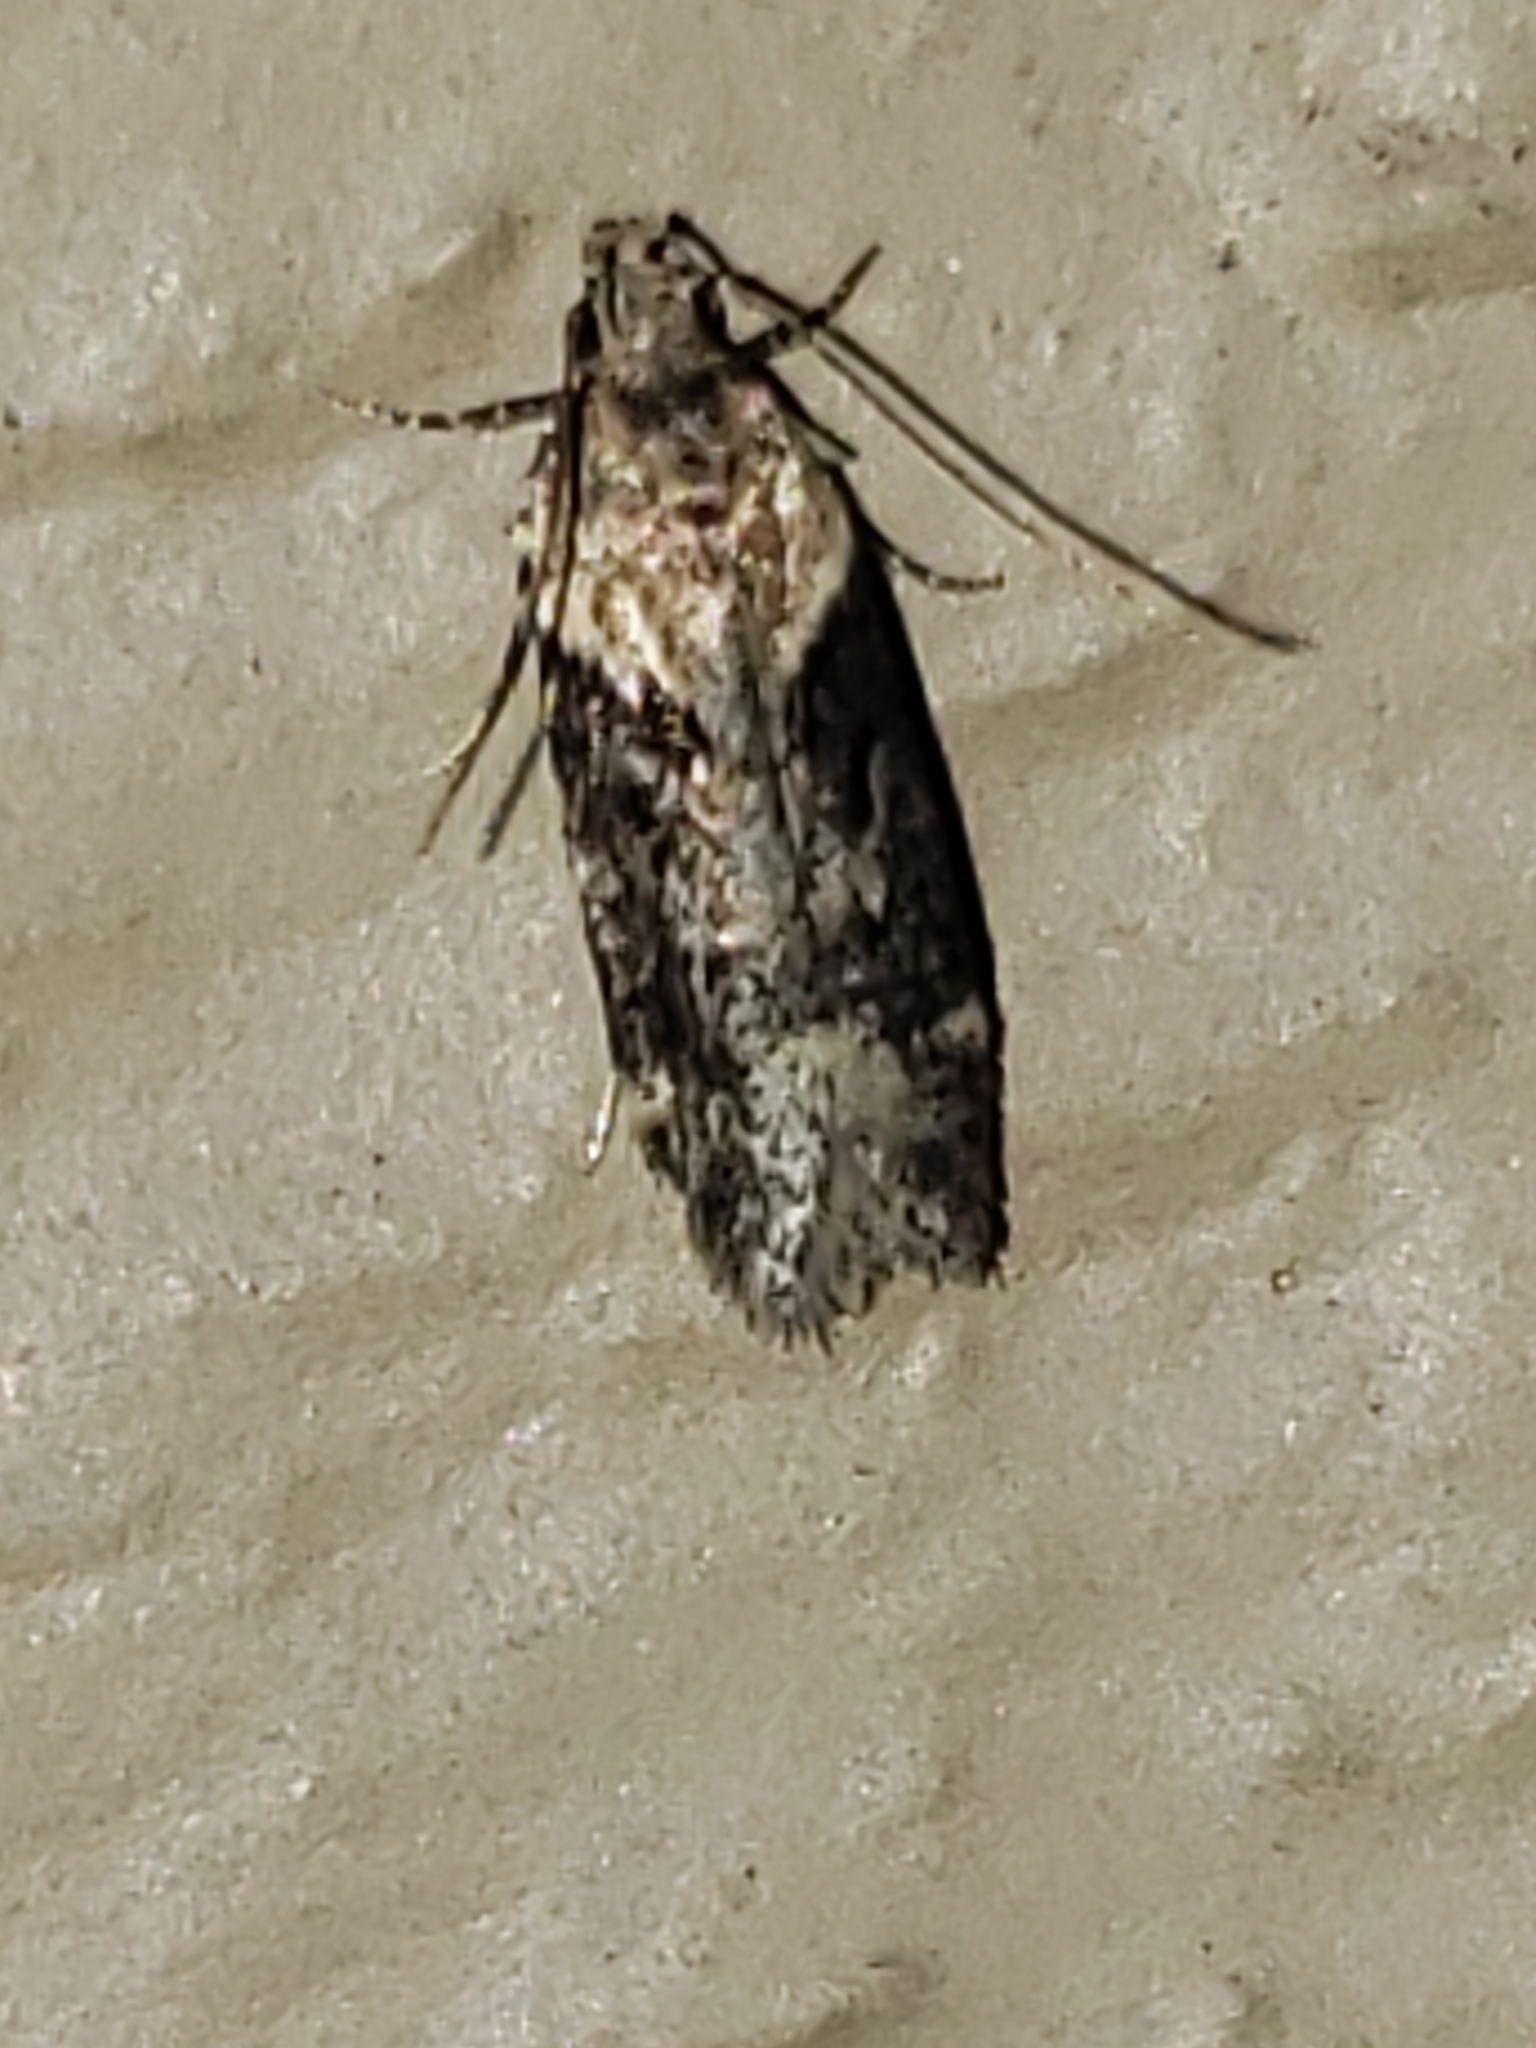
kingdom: Animalia
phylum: Arthropoda
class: Insecta
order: Lepidoptera
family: Gelechiidae
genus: Chionodes
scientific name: Chionodes mediofuscella
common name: Black-smudged chionodes moth
